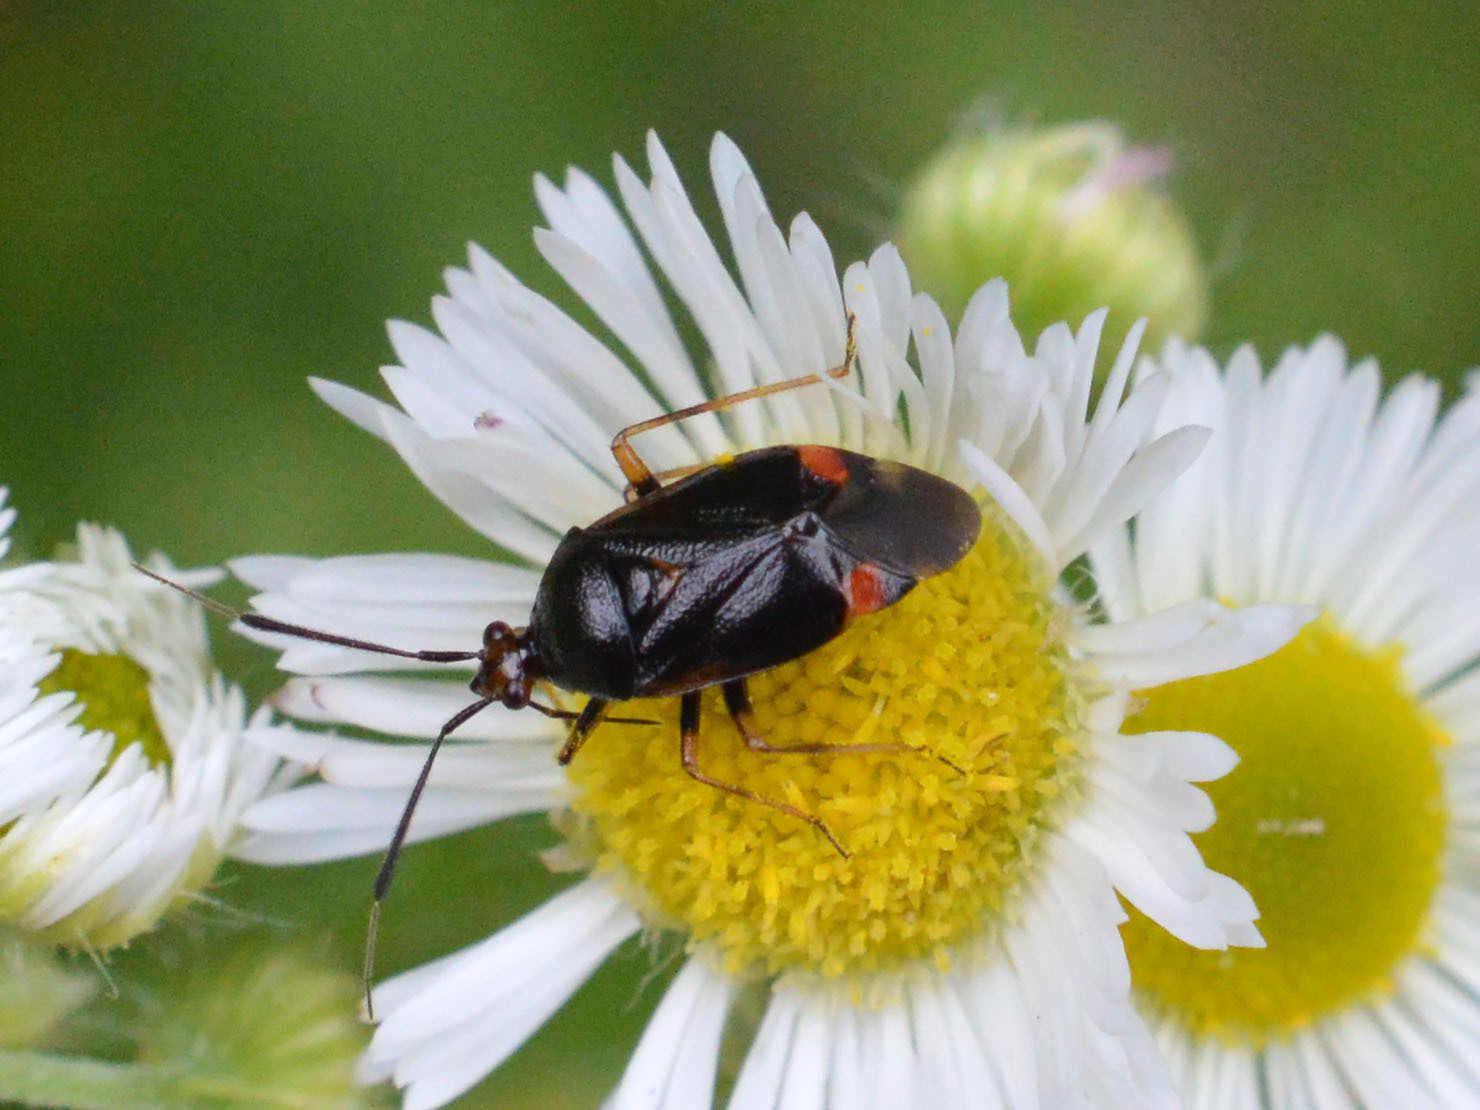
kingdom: Animalia
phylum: Arthropoda
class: Insecta
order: Hemiptera
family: Miridae
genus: Deraeocoris
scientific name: Deraeocoris ruber
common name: Plant bug
